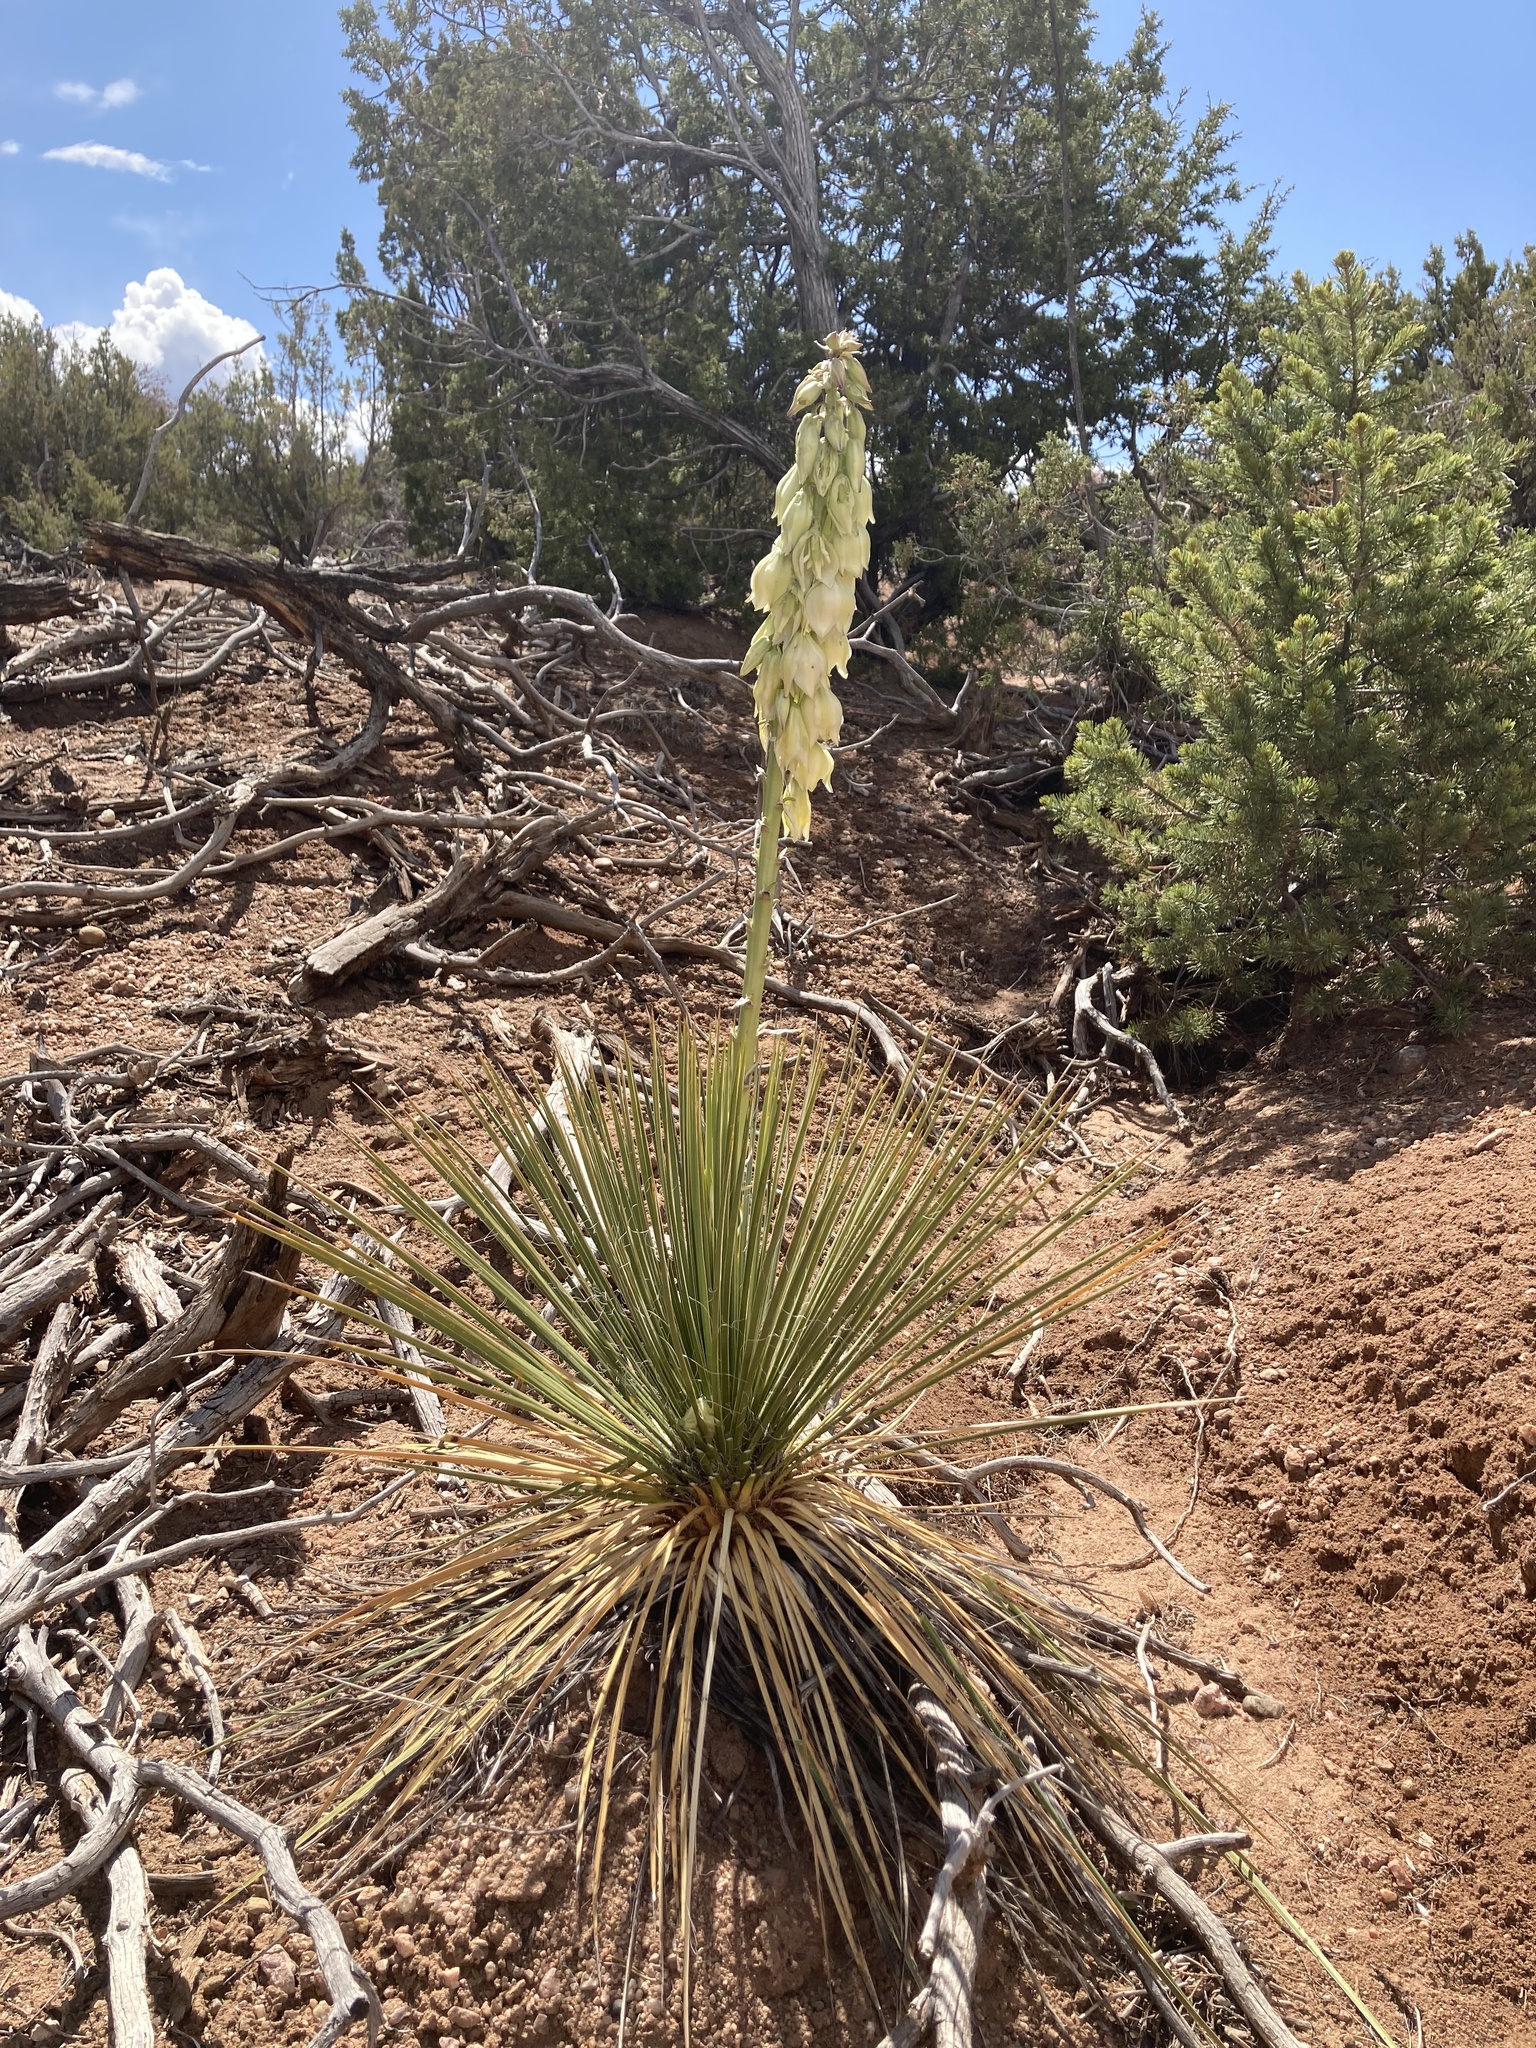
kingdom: Plantae
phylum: Tracheophyta
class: Liliopsida
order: Asparagales
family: Asparagaceae
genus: Yucca
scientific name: Yucca angustissima
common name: Narrowleaf yucca
